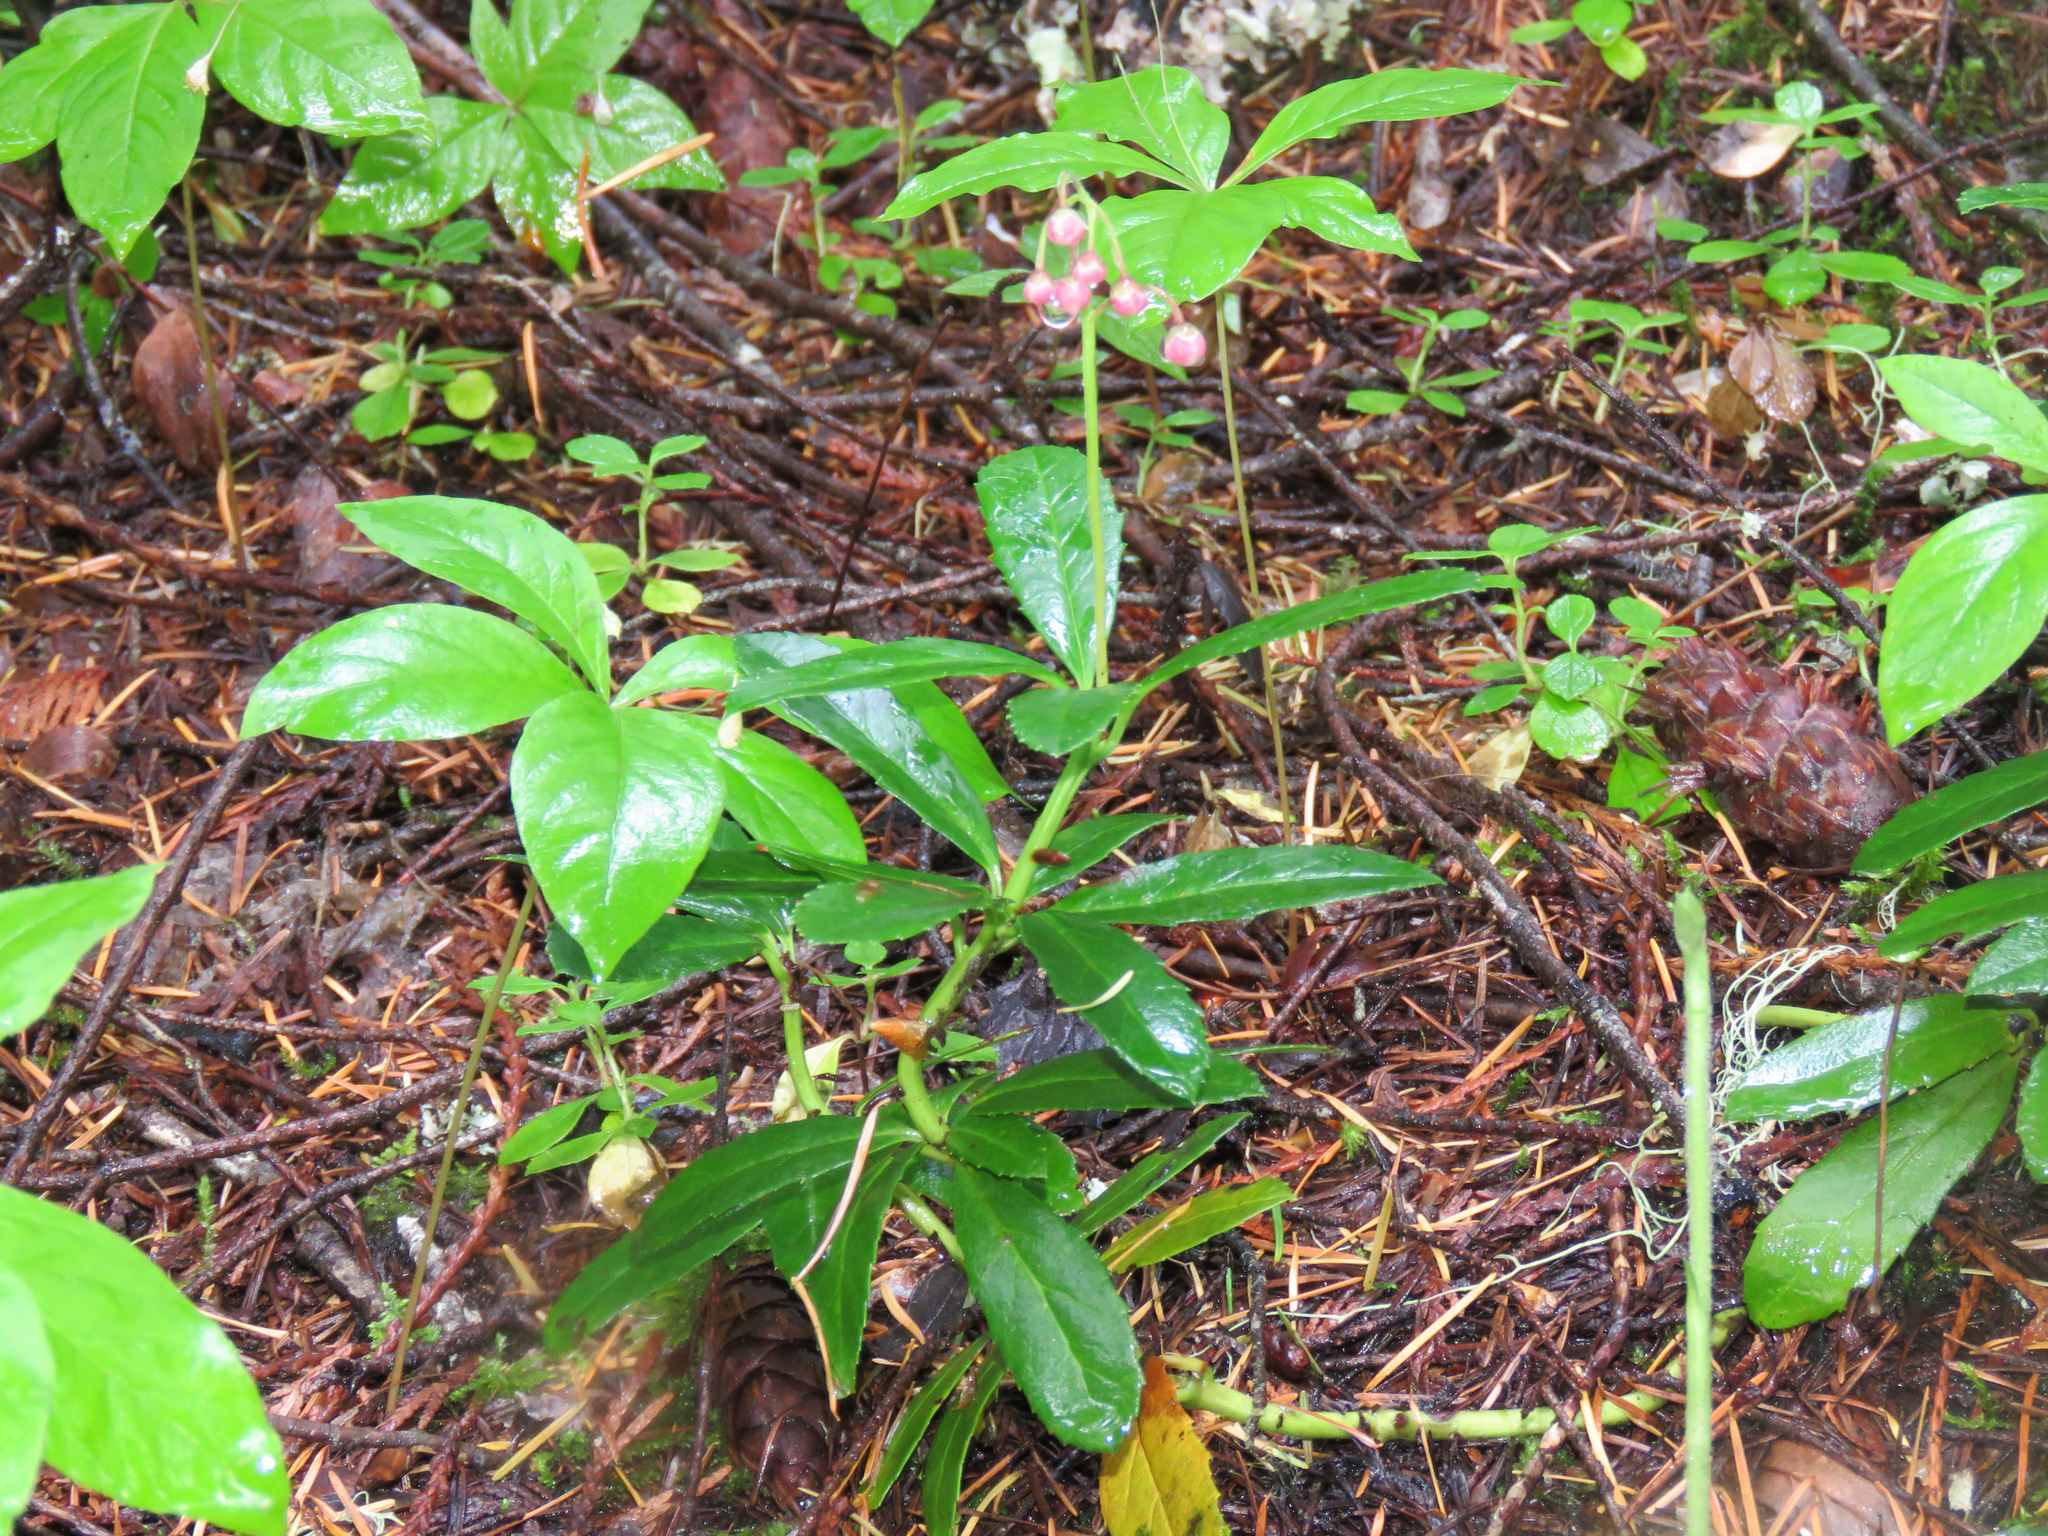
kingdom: Plantae
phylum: Tracheophyta
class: Magnoliopsida
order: Ericales
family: Ericaceae
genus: Chimaphila
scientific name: Chimaphila umbellata
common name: Pipsissewa
